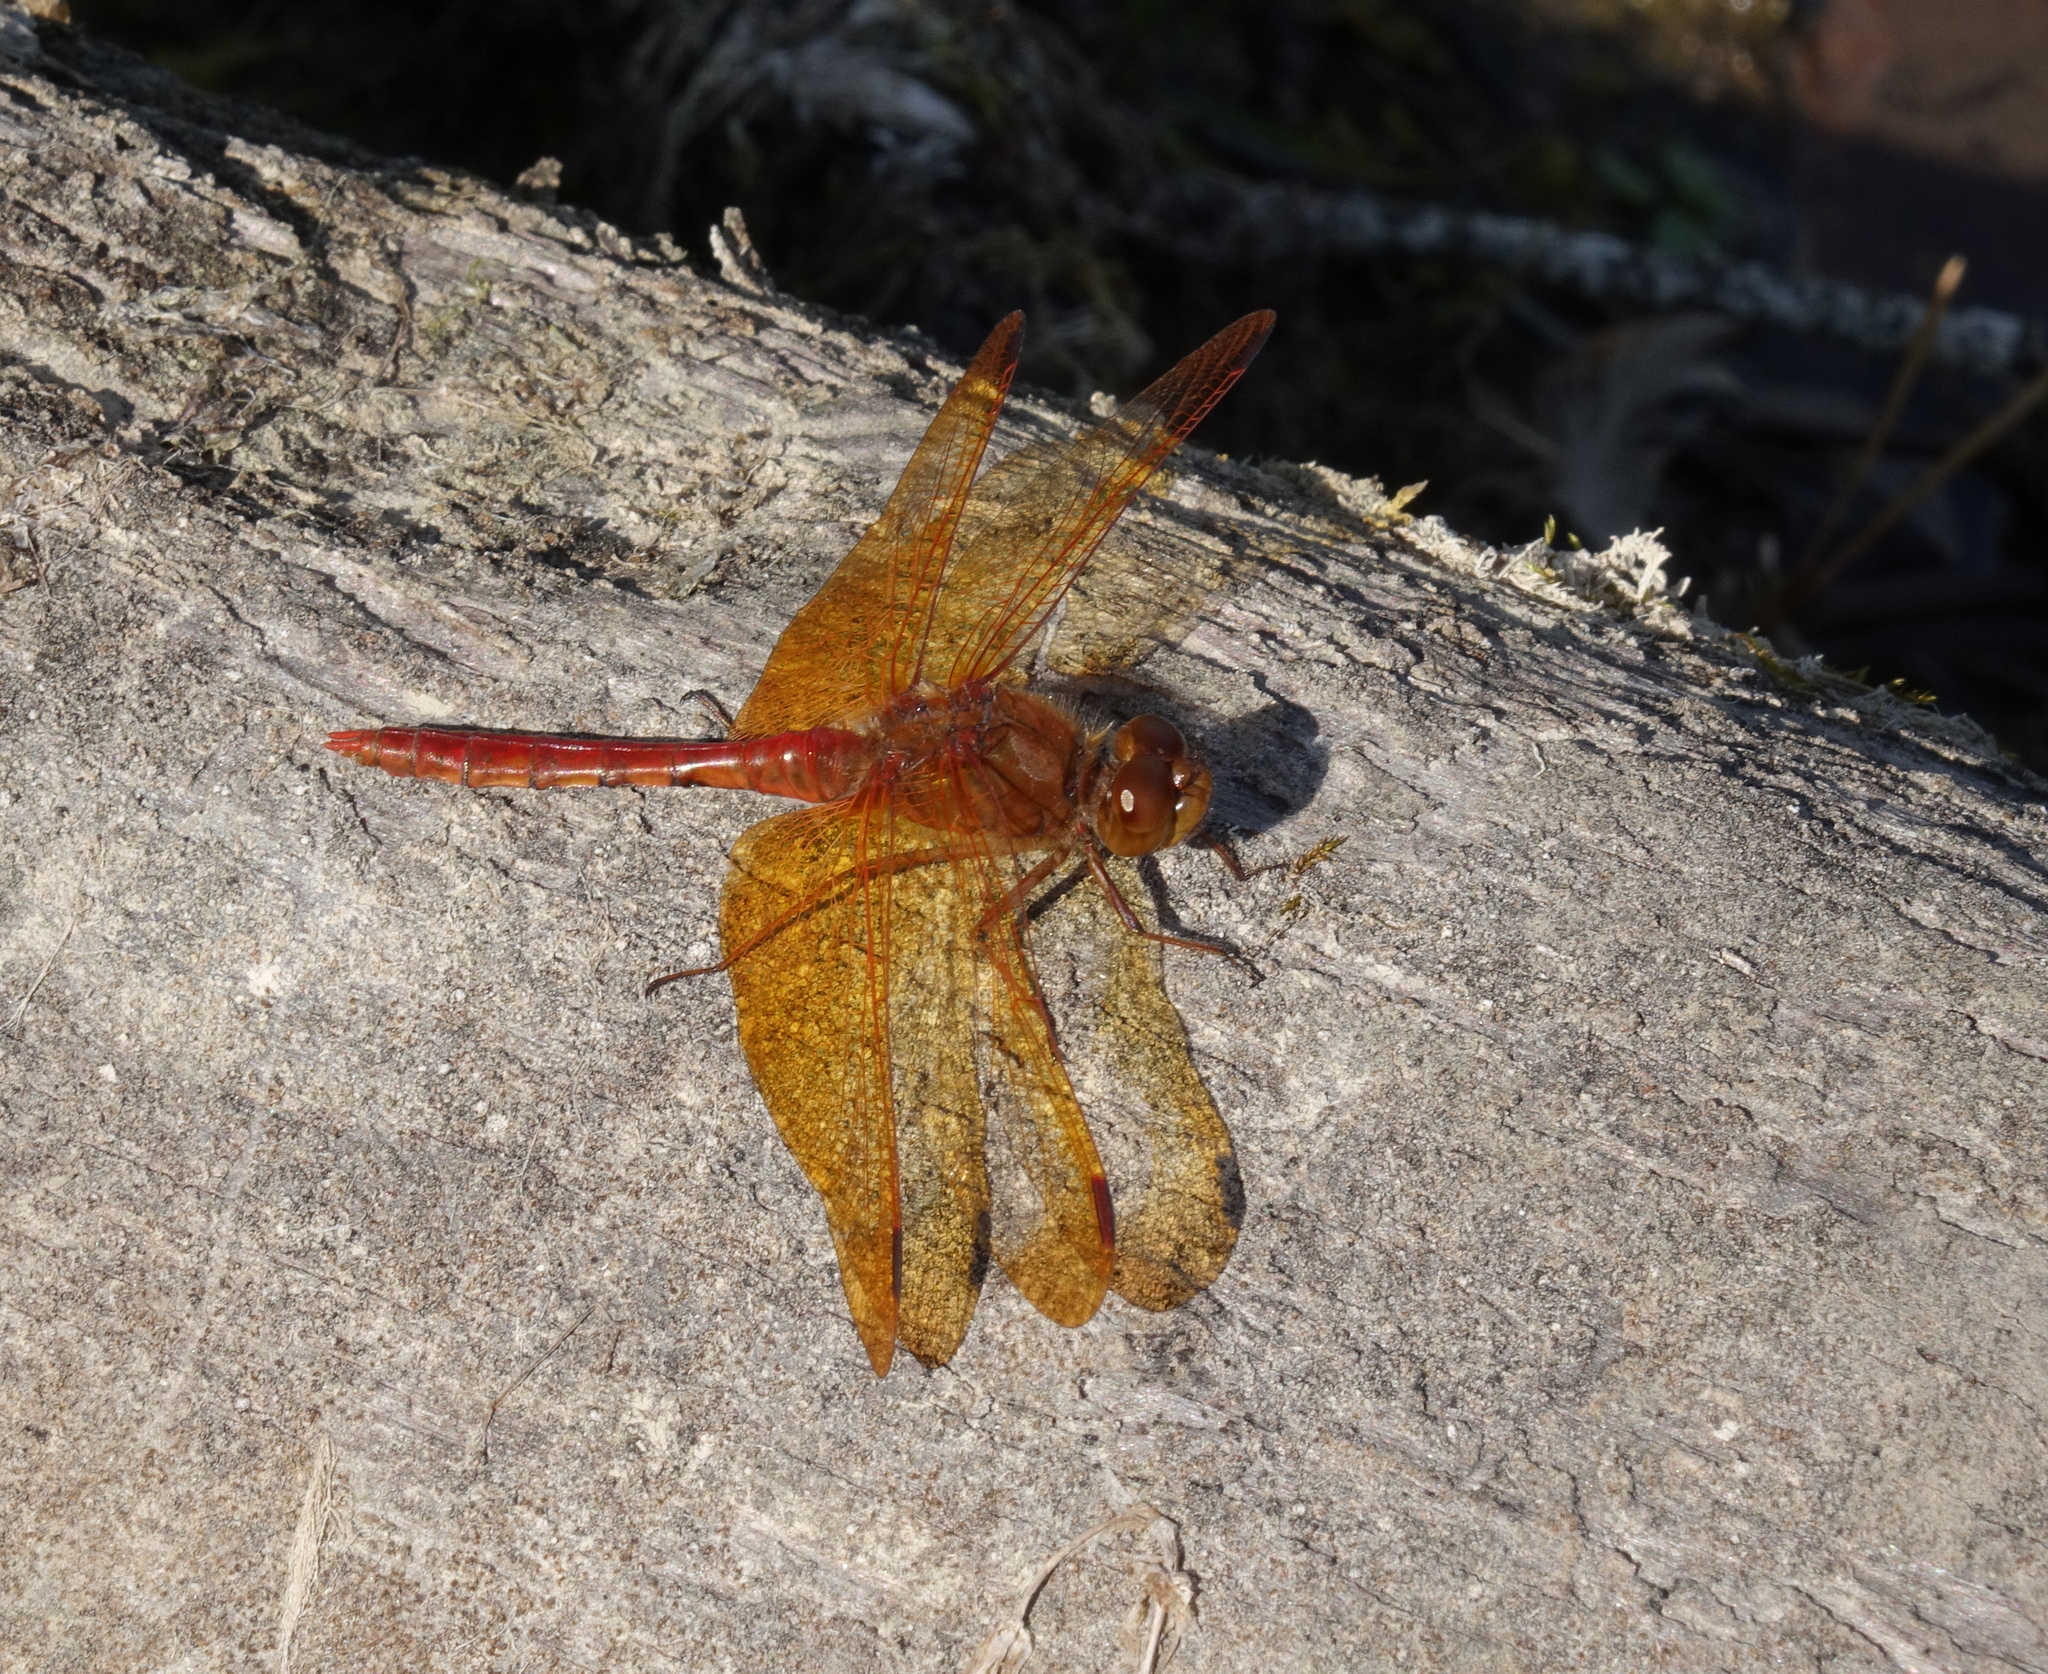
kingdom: Animalia
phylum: Arthropoda
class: Insecta
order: Odonata
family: Libellulidae
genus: Sympetrum
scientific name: Sympetrum croceolum
